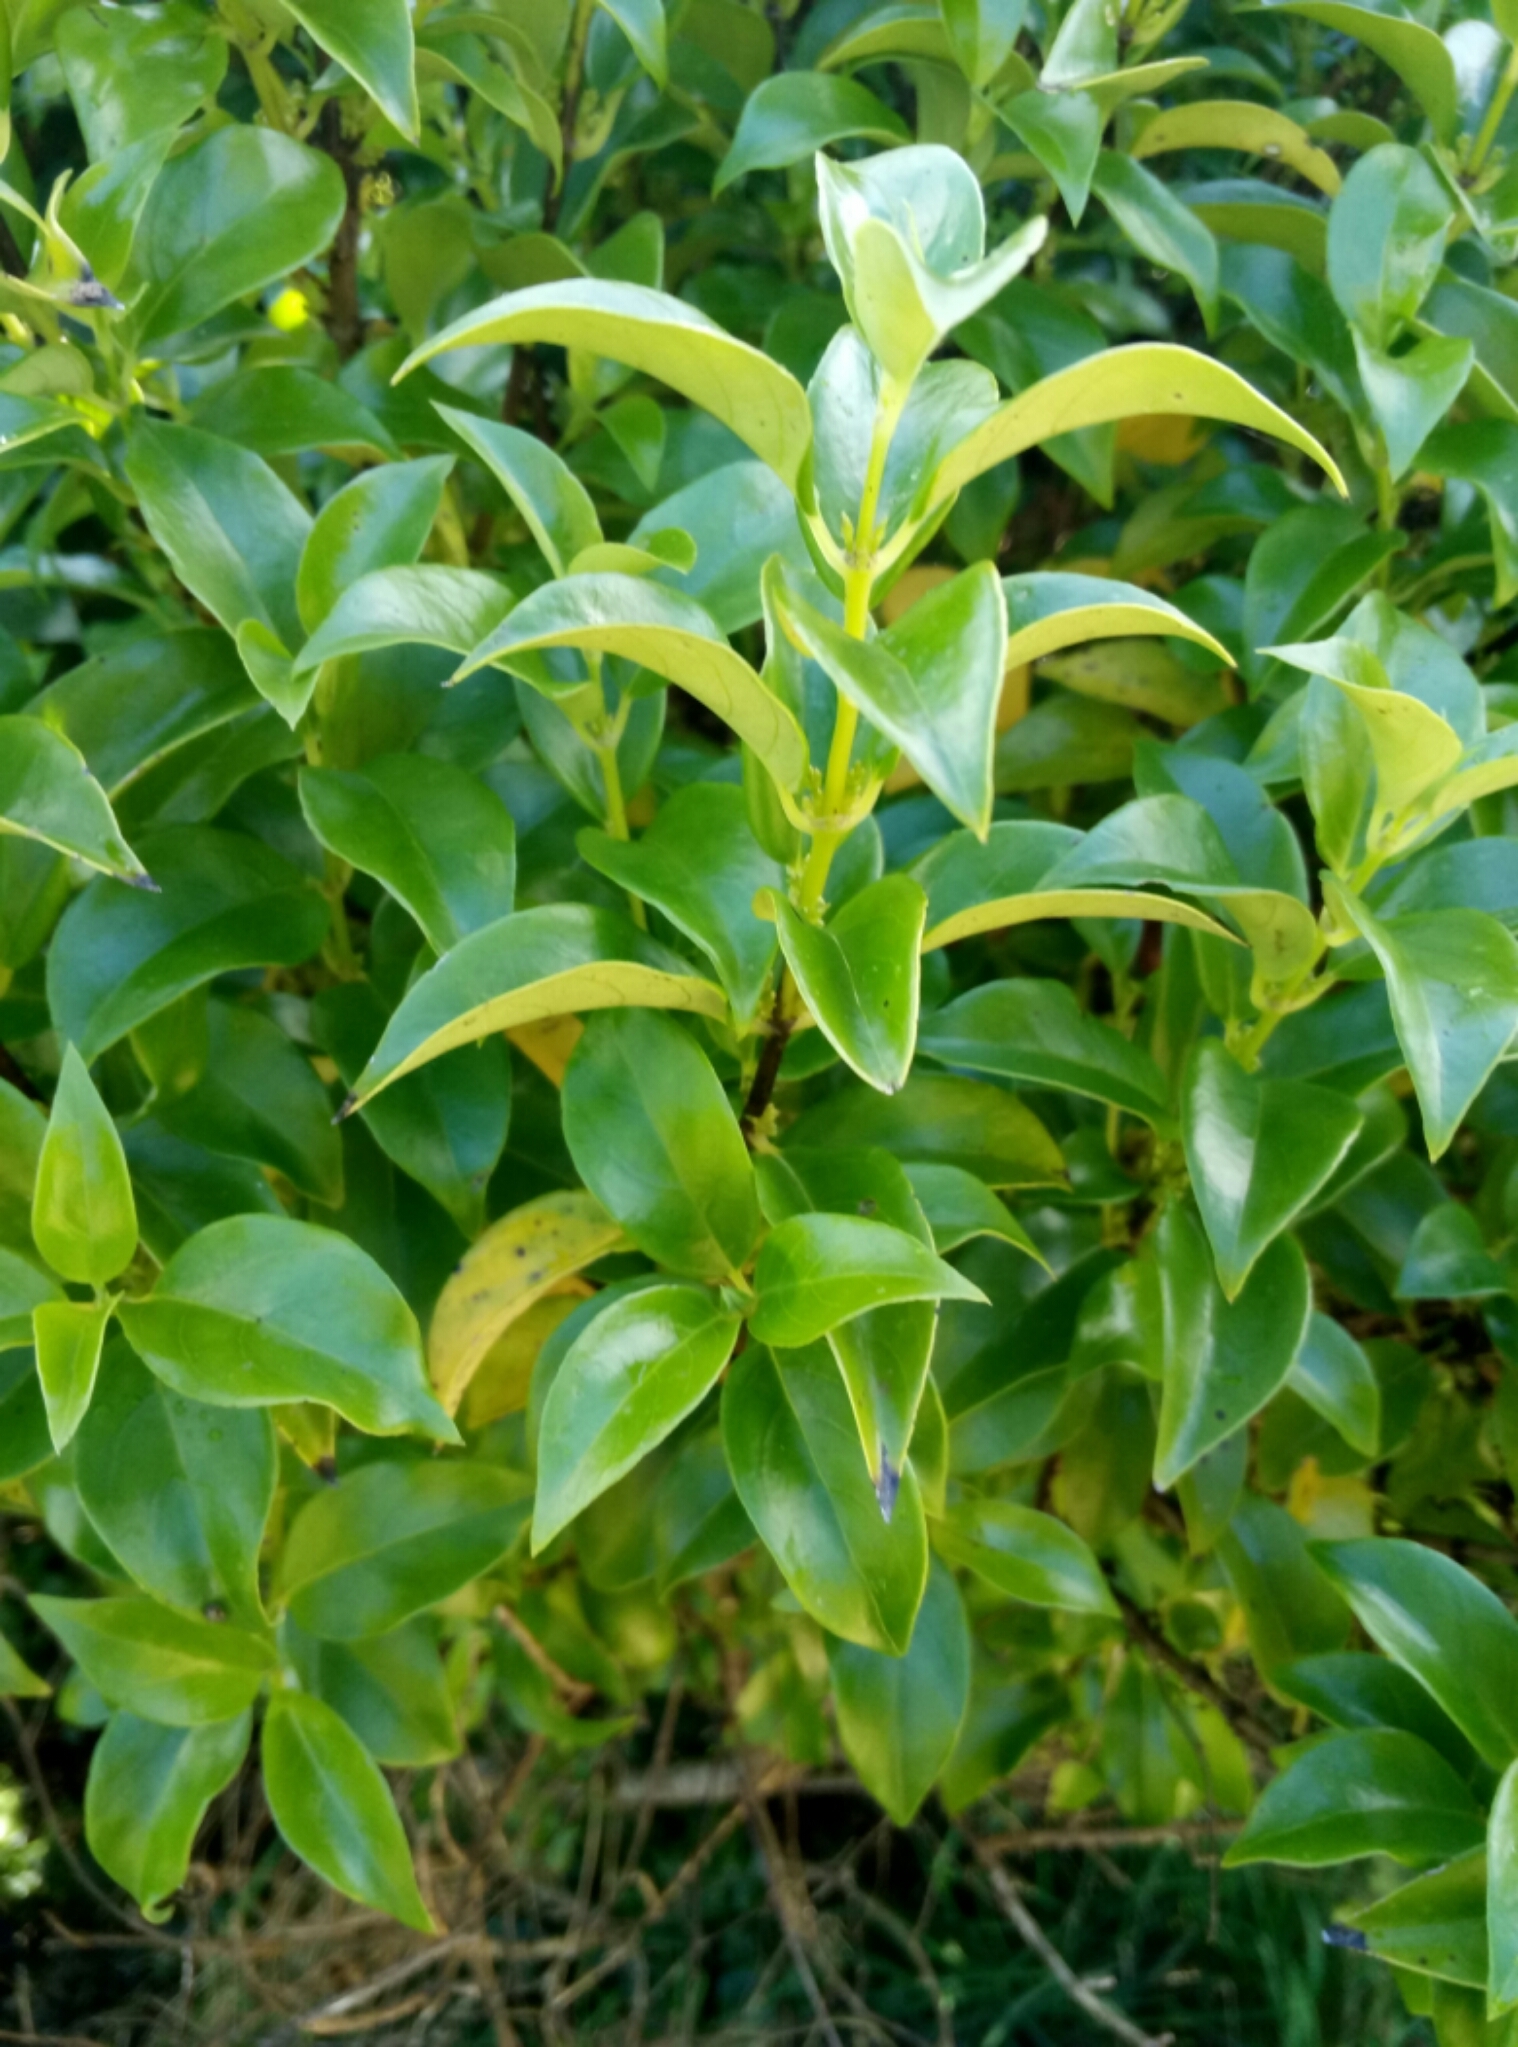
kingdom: Plantae
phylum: Tracheophyta
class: Magnoliopsida
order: Gentianales
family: Loganiaceae
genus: Geniostoma
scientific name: Geniostoma ligustrifolium
